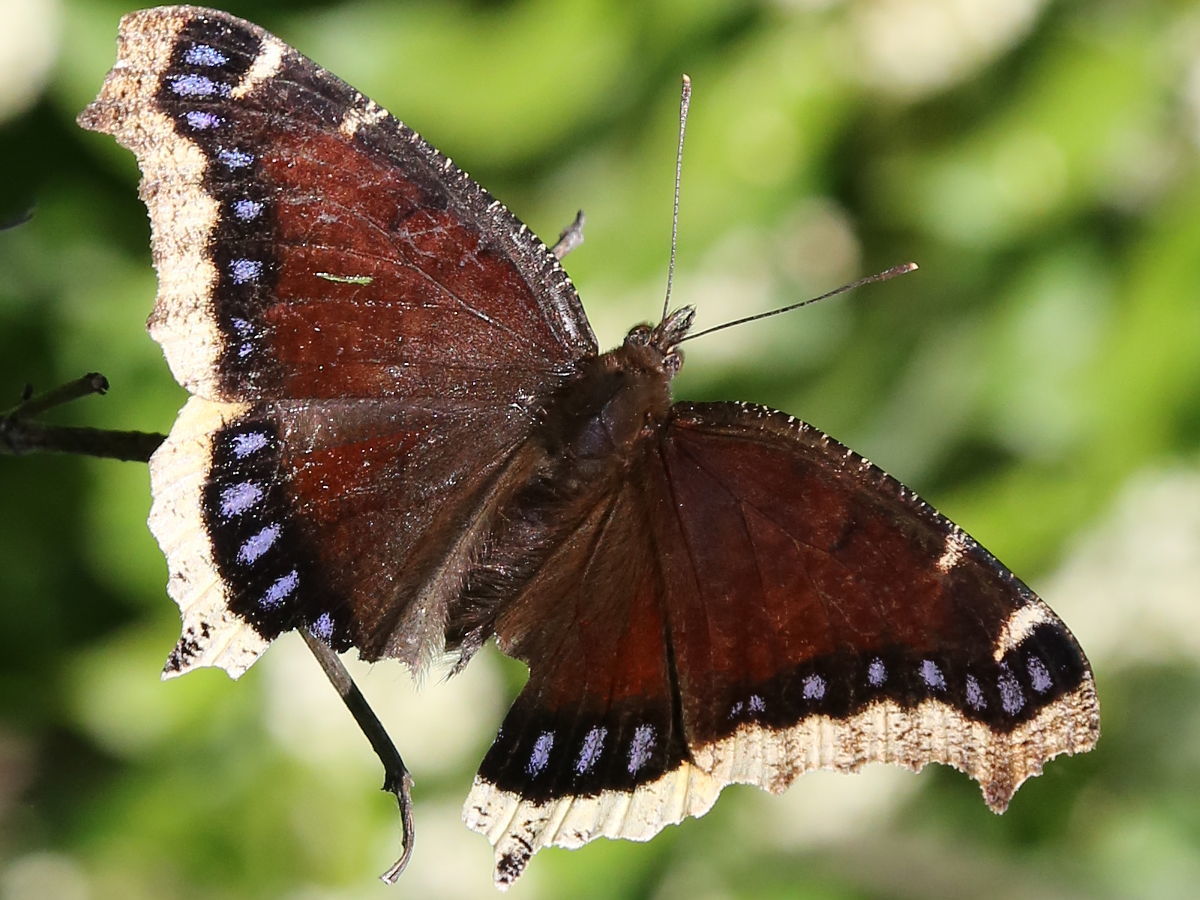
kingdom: Animalia
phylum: Arthropoda
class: Insecta
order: Lepidoptera
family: Nymphalidae
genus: Nymphalis
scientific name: Nymphalis antiopa
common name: Camberwell beauty
